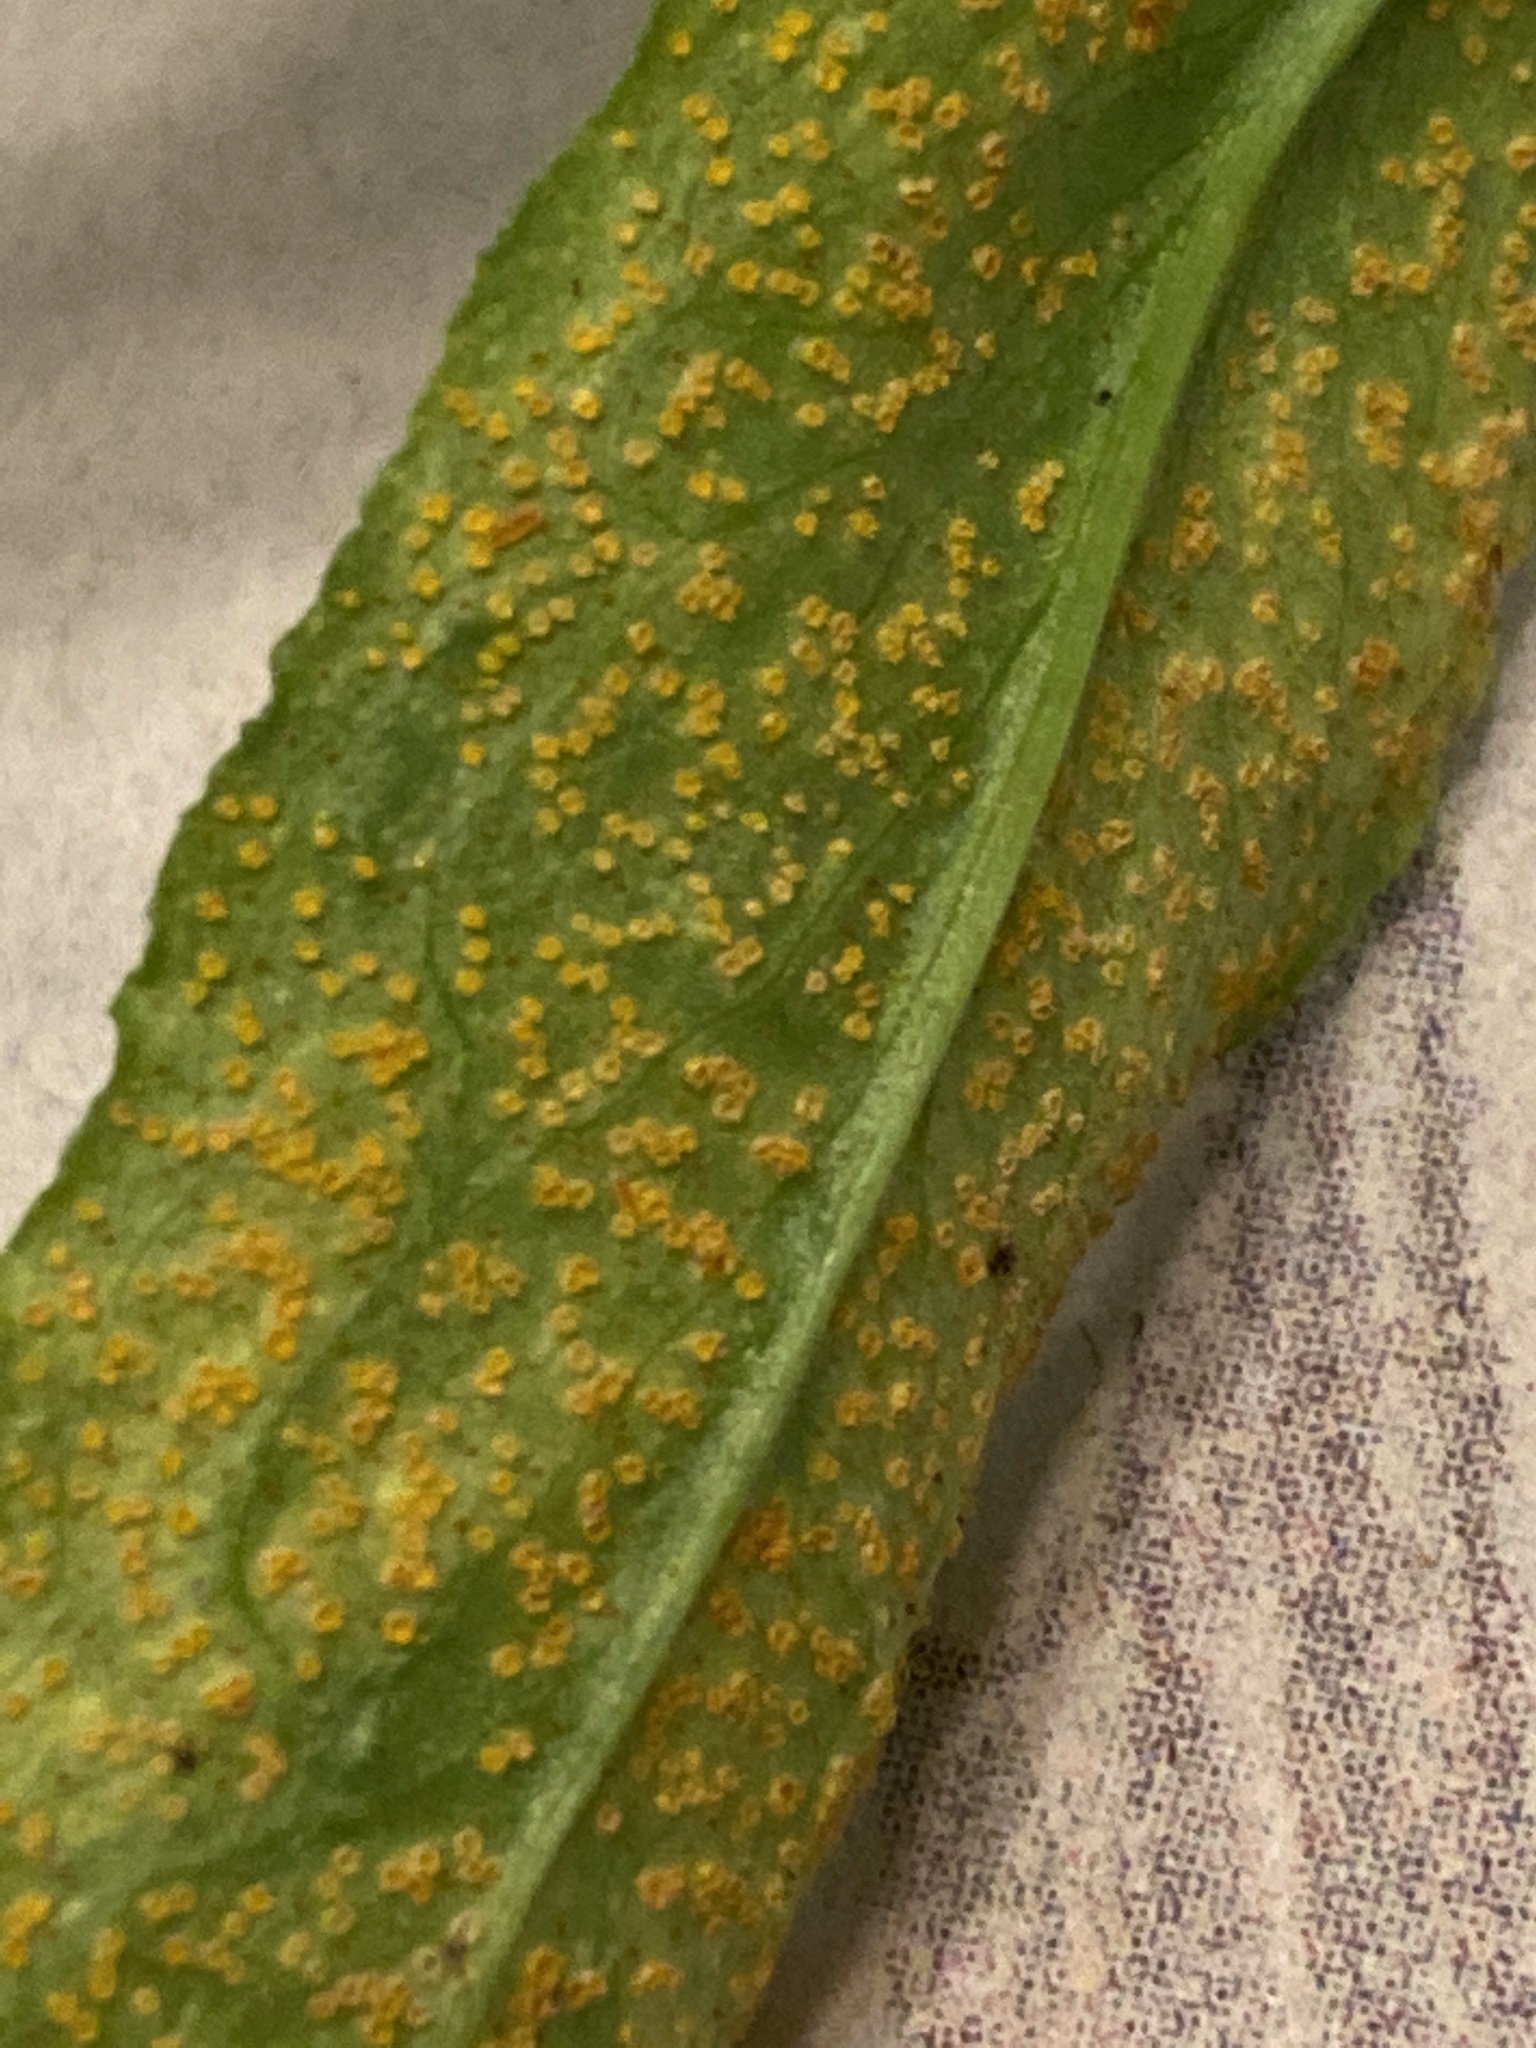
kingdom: Plantae
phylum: Tracheophyta
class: Liliopsida
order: Alismatales
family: Araceae
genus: Arisaema
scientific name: Arisaema dracontium
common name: Dragon-arum
